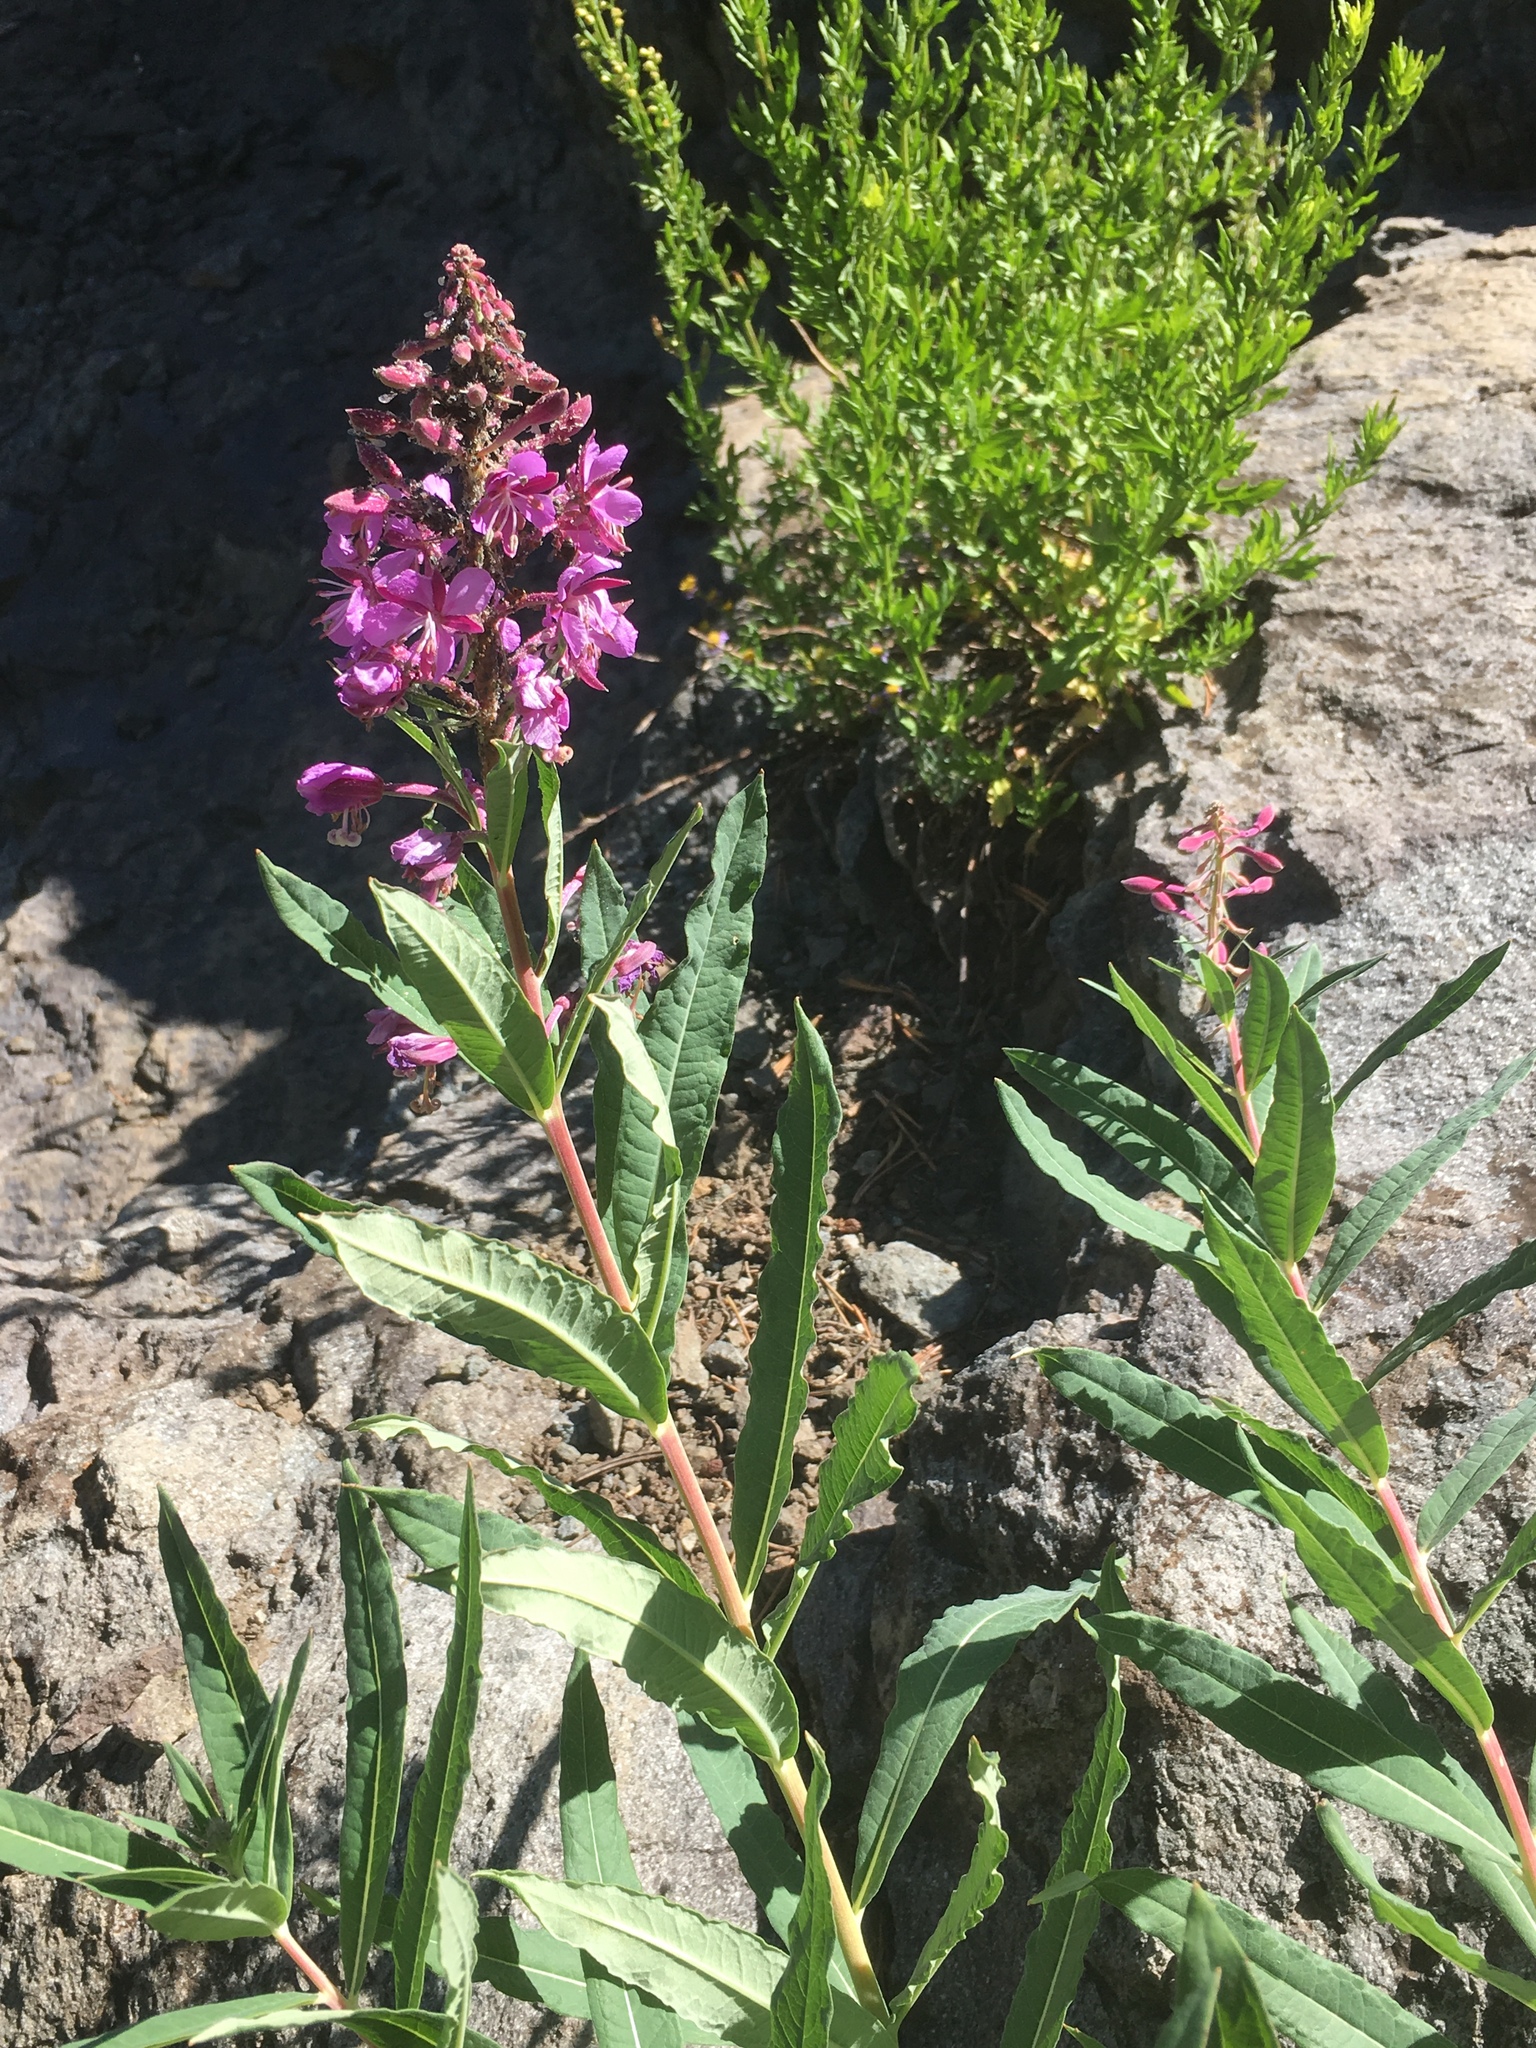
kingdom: Plantae
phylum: Tracheophyta
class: Magnoliopsida
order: Myrtales
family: Onagraceae
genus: Chamaenerion
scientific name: Chamaenerion angustifolium
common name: Fireweed
